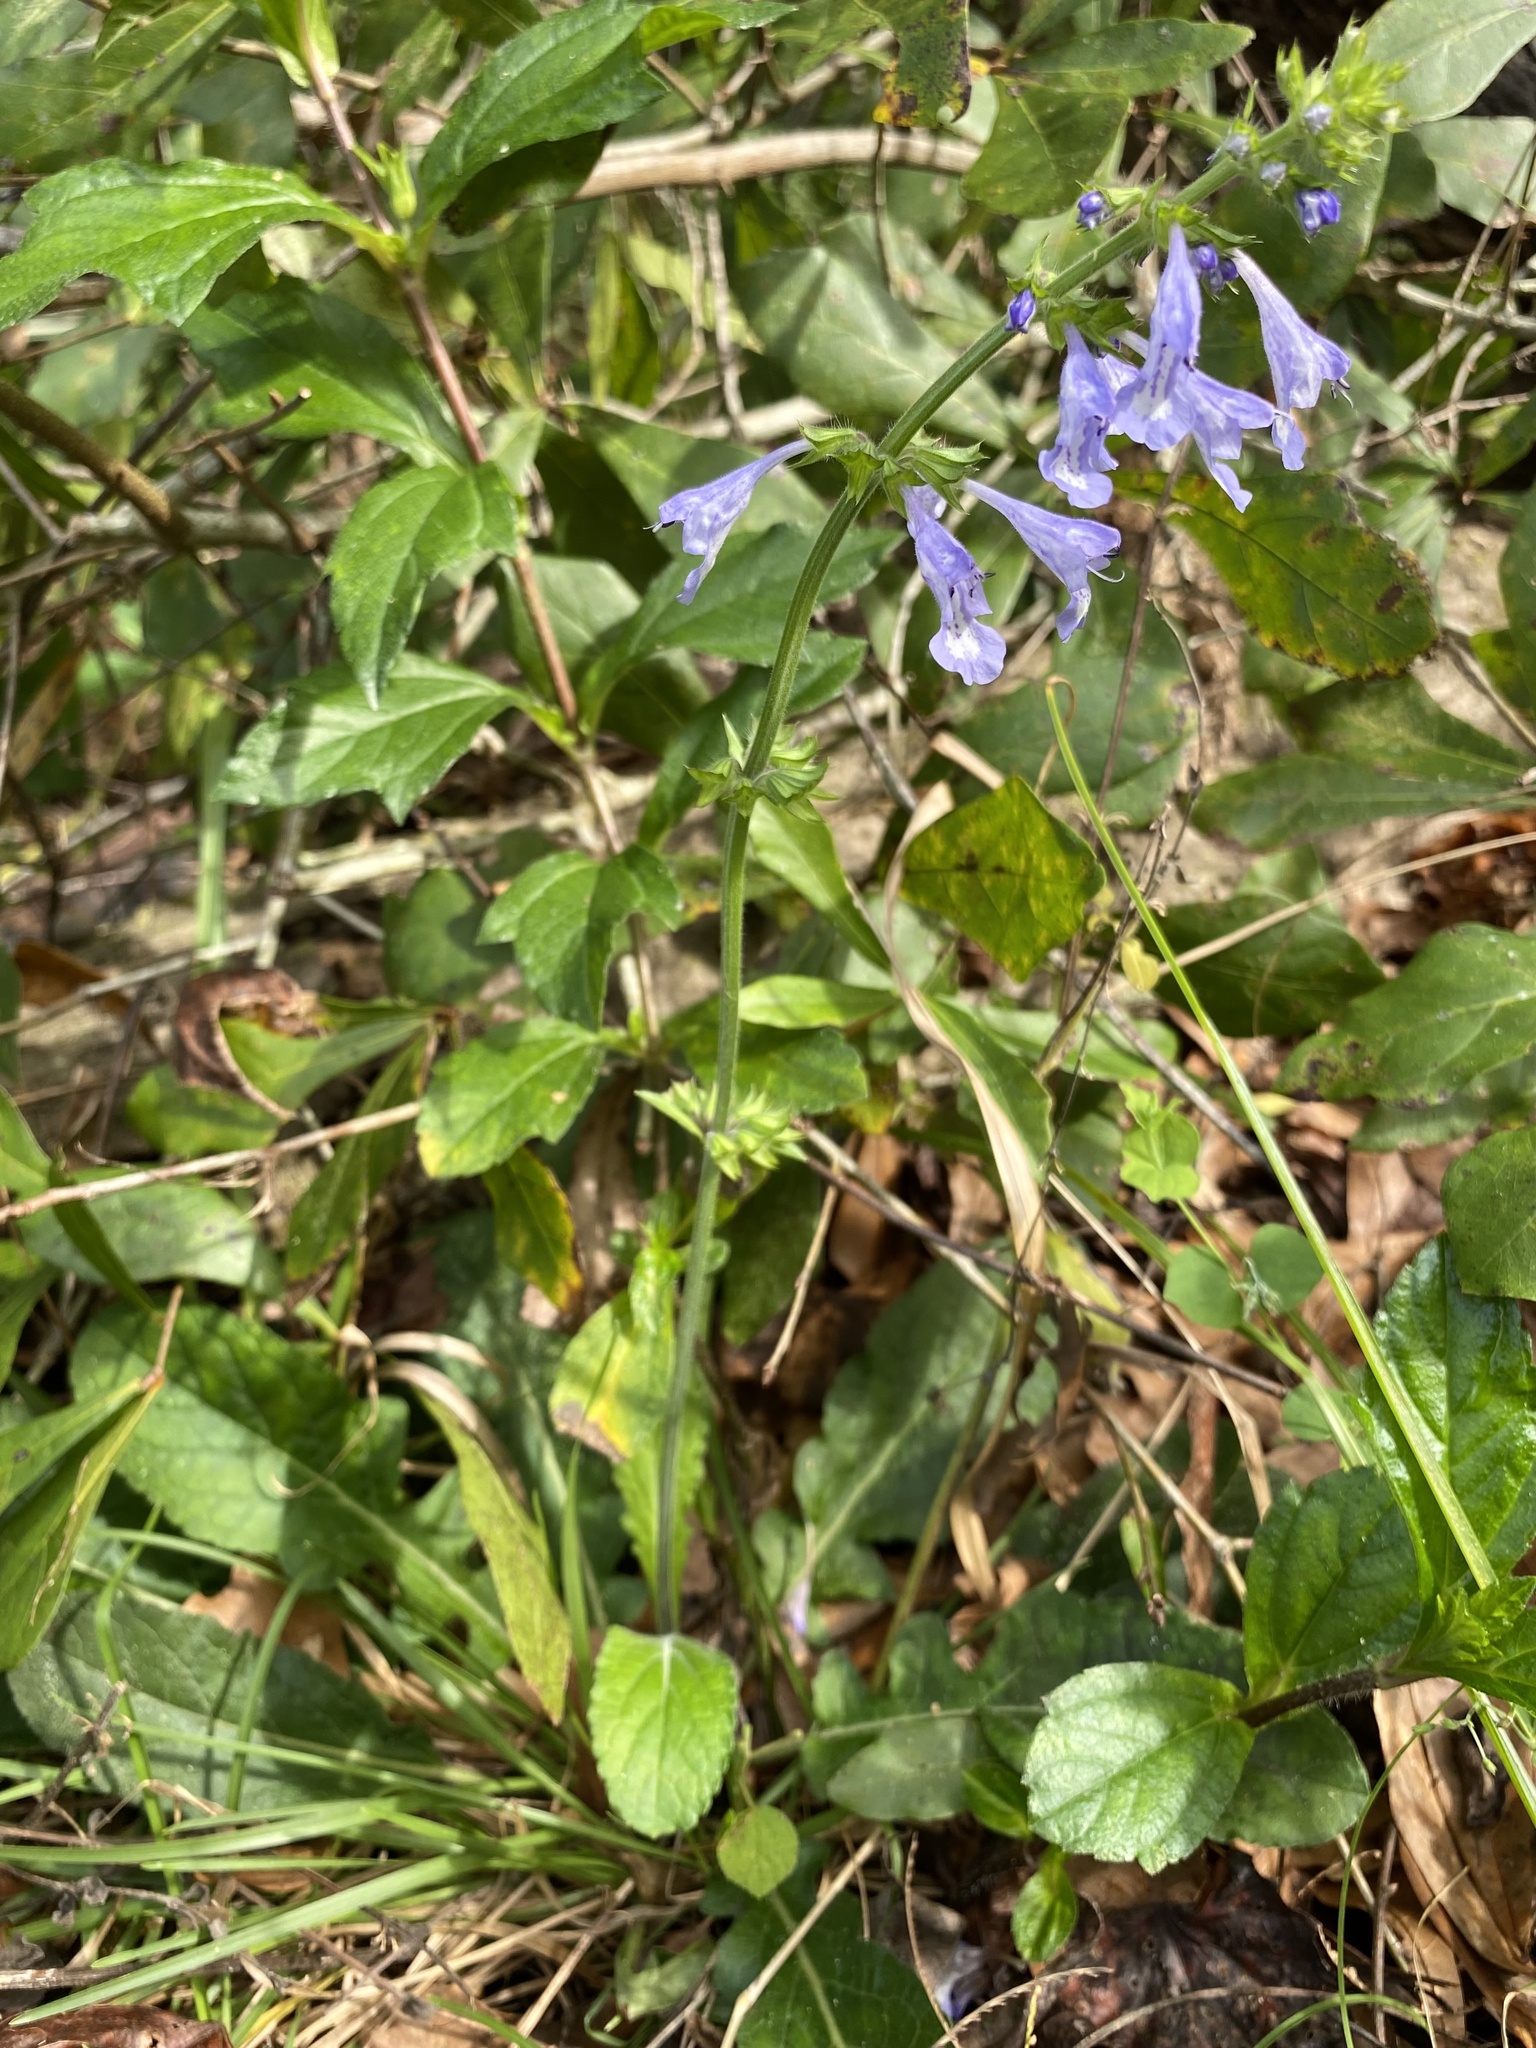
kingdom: Plantae
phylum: Tracheophyta
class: Magnoliopsida
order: Lamiales
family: Lamiaceae
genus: Salvia
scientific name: Salvia lyrata
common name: Cancerweed
